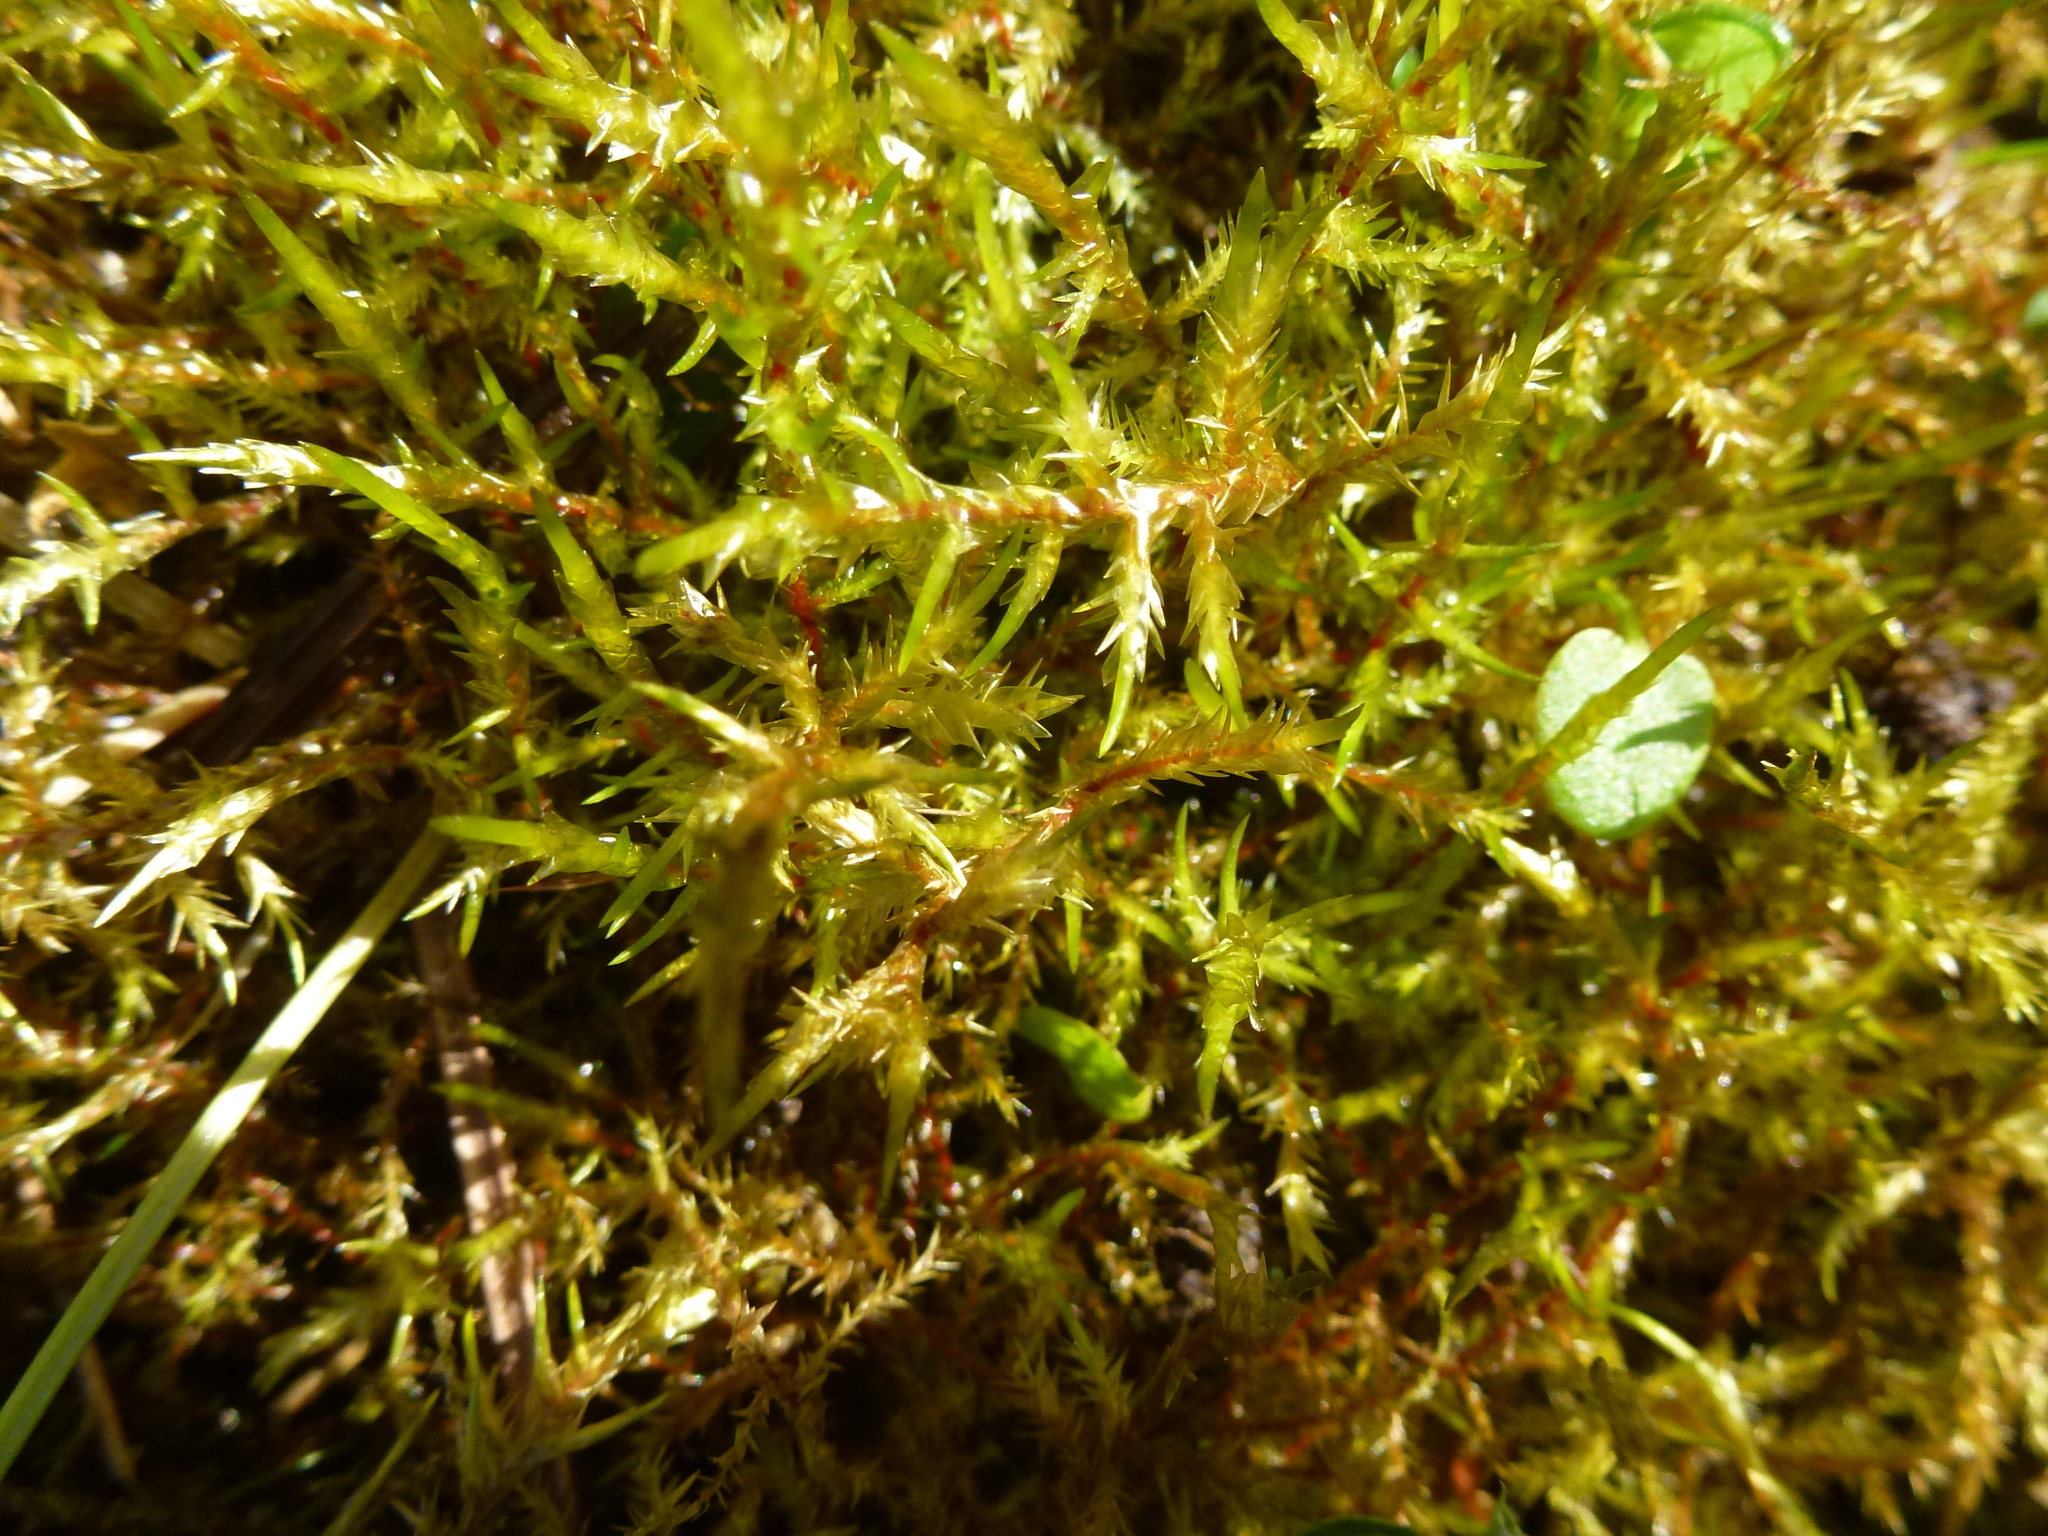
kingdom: Plantae
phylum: Bryophyta
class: Bryopsida
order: Hypnales
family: Pylaisiaceae
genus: Calliergonella
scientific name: Calliergonella cuspidata
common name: Common large wetland moss
